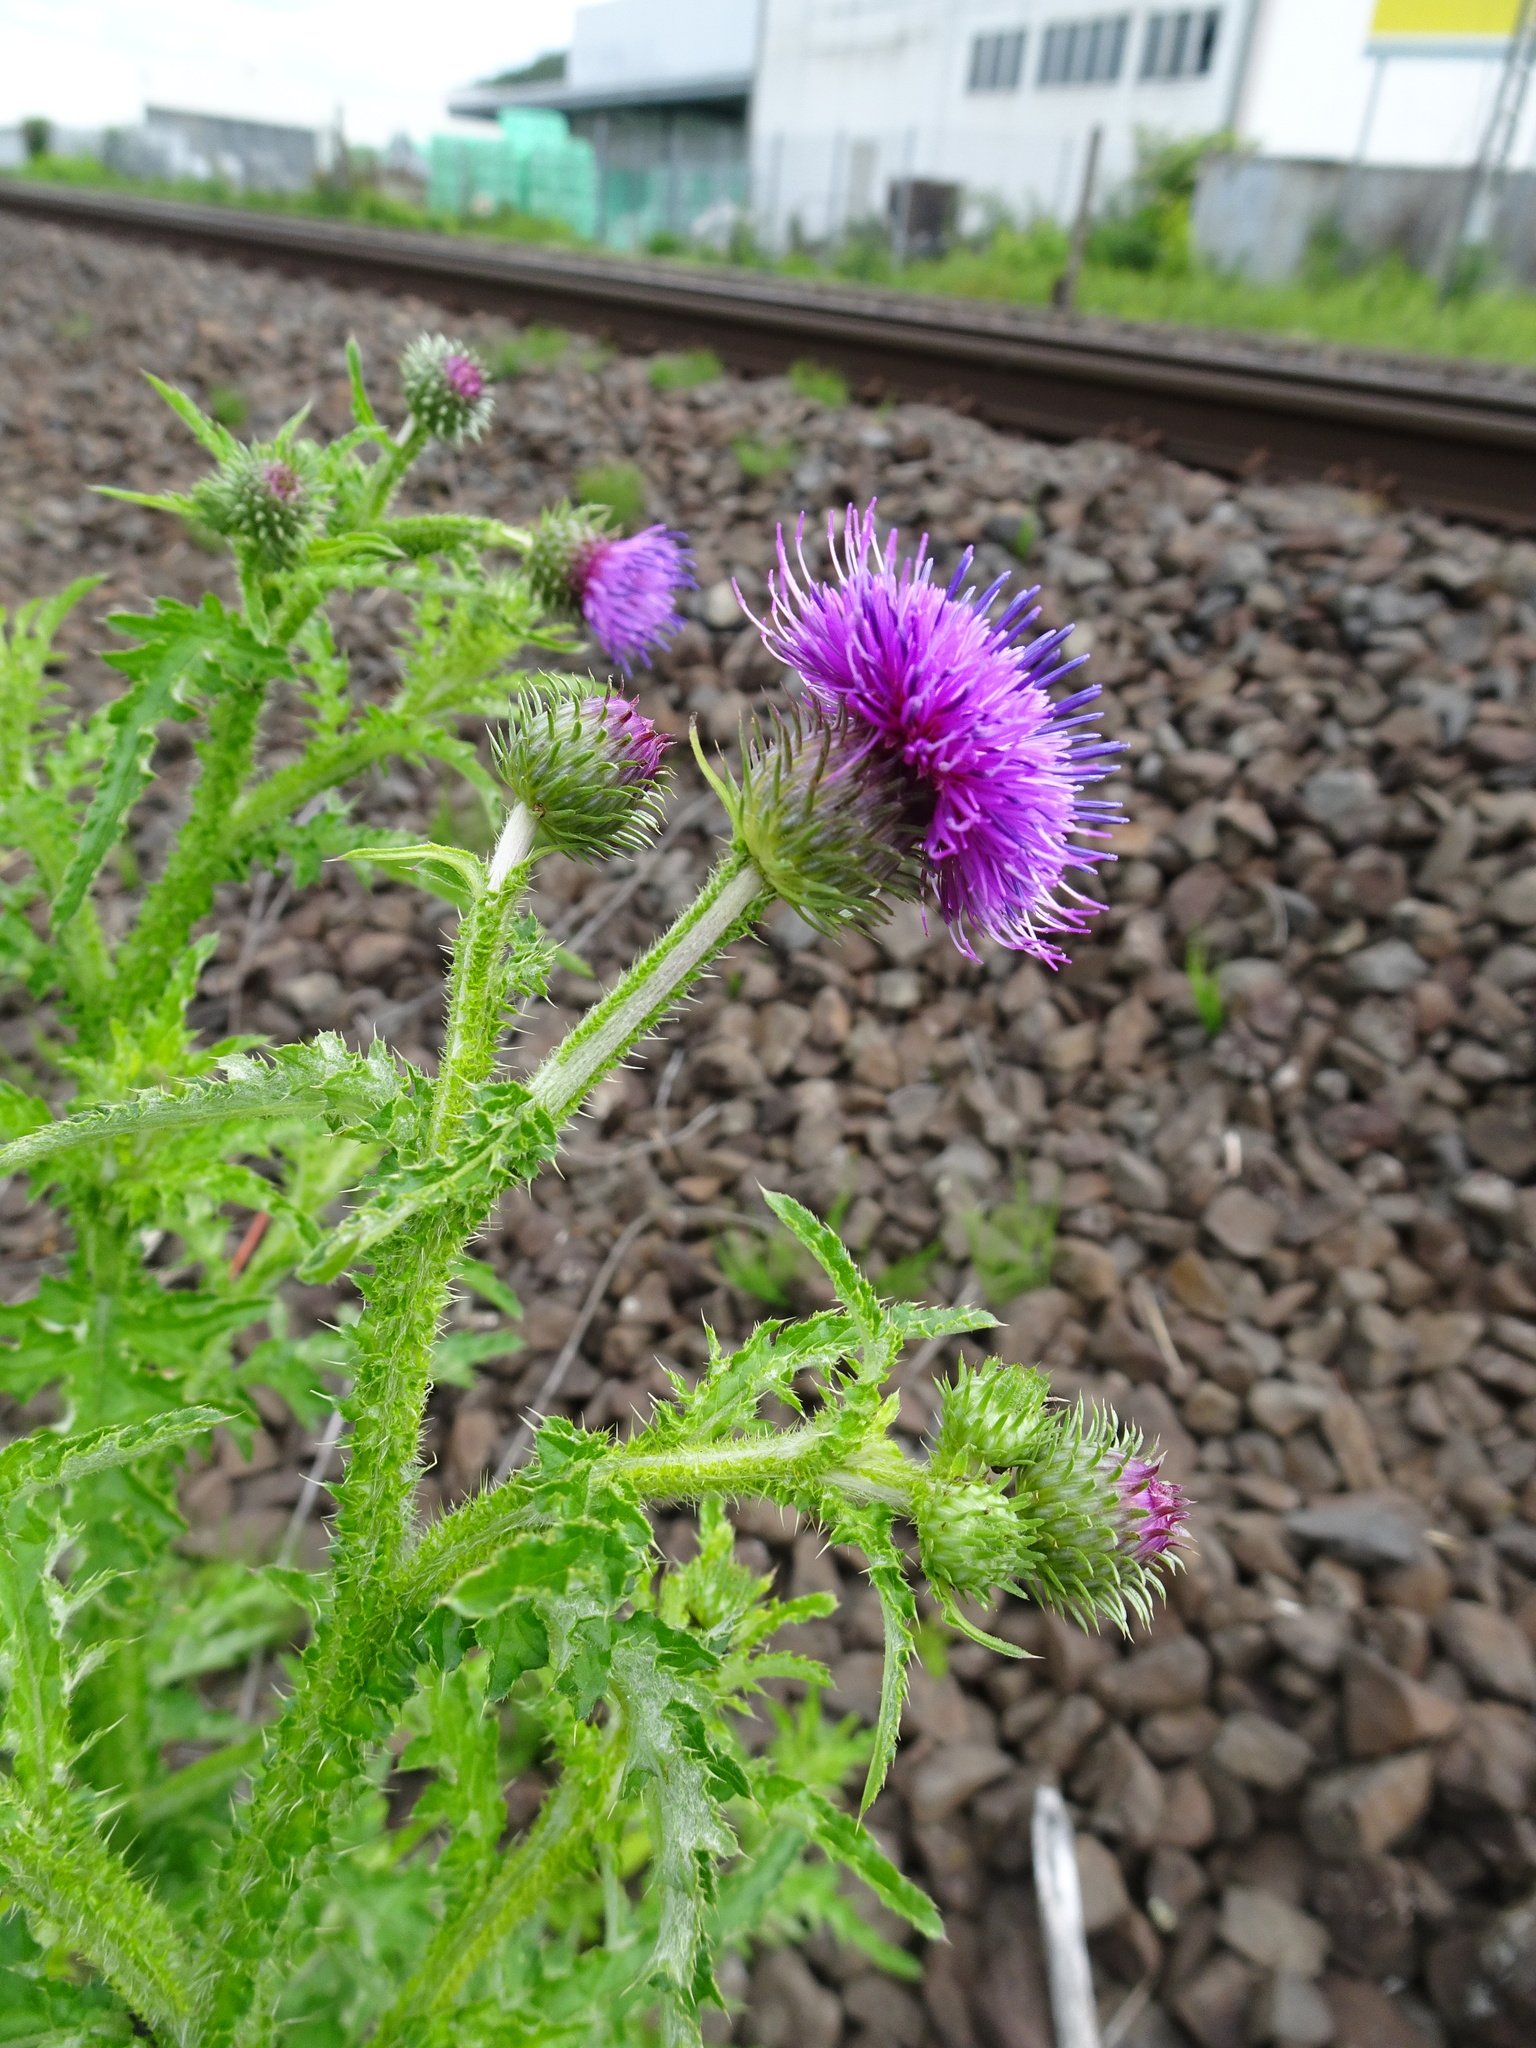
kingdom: Plantae
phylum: Tracheophyta
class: Magnoliopsida
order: Asterales
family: Asteraceae
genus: Carduus
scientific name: Carduus crispus
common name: Welted thistle
